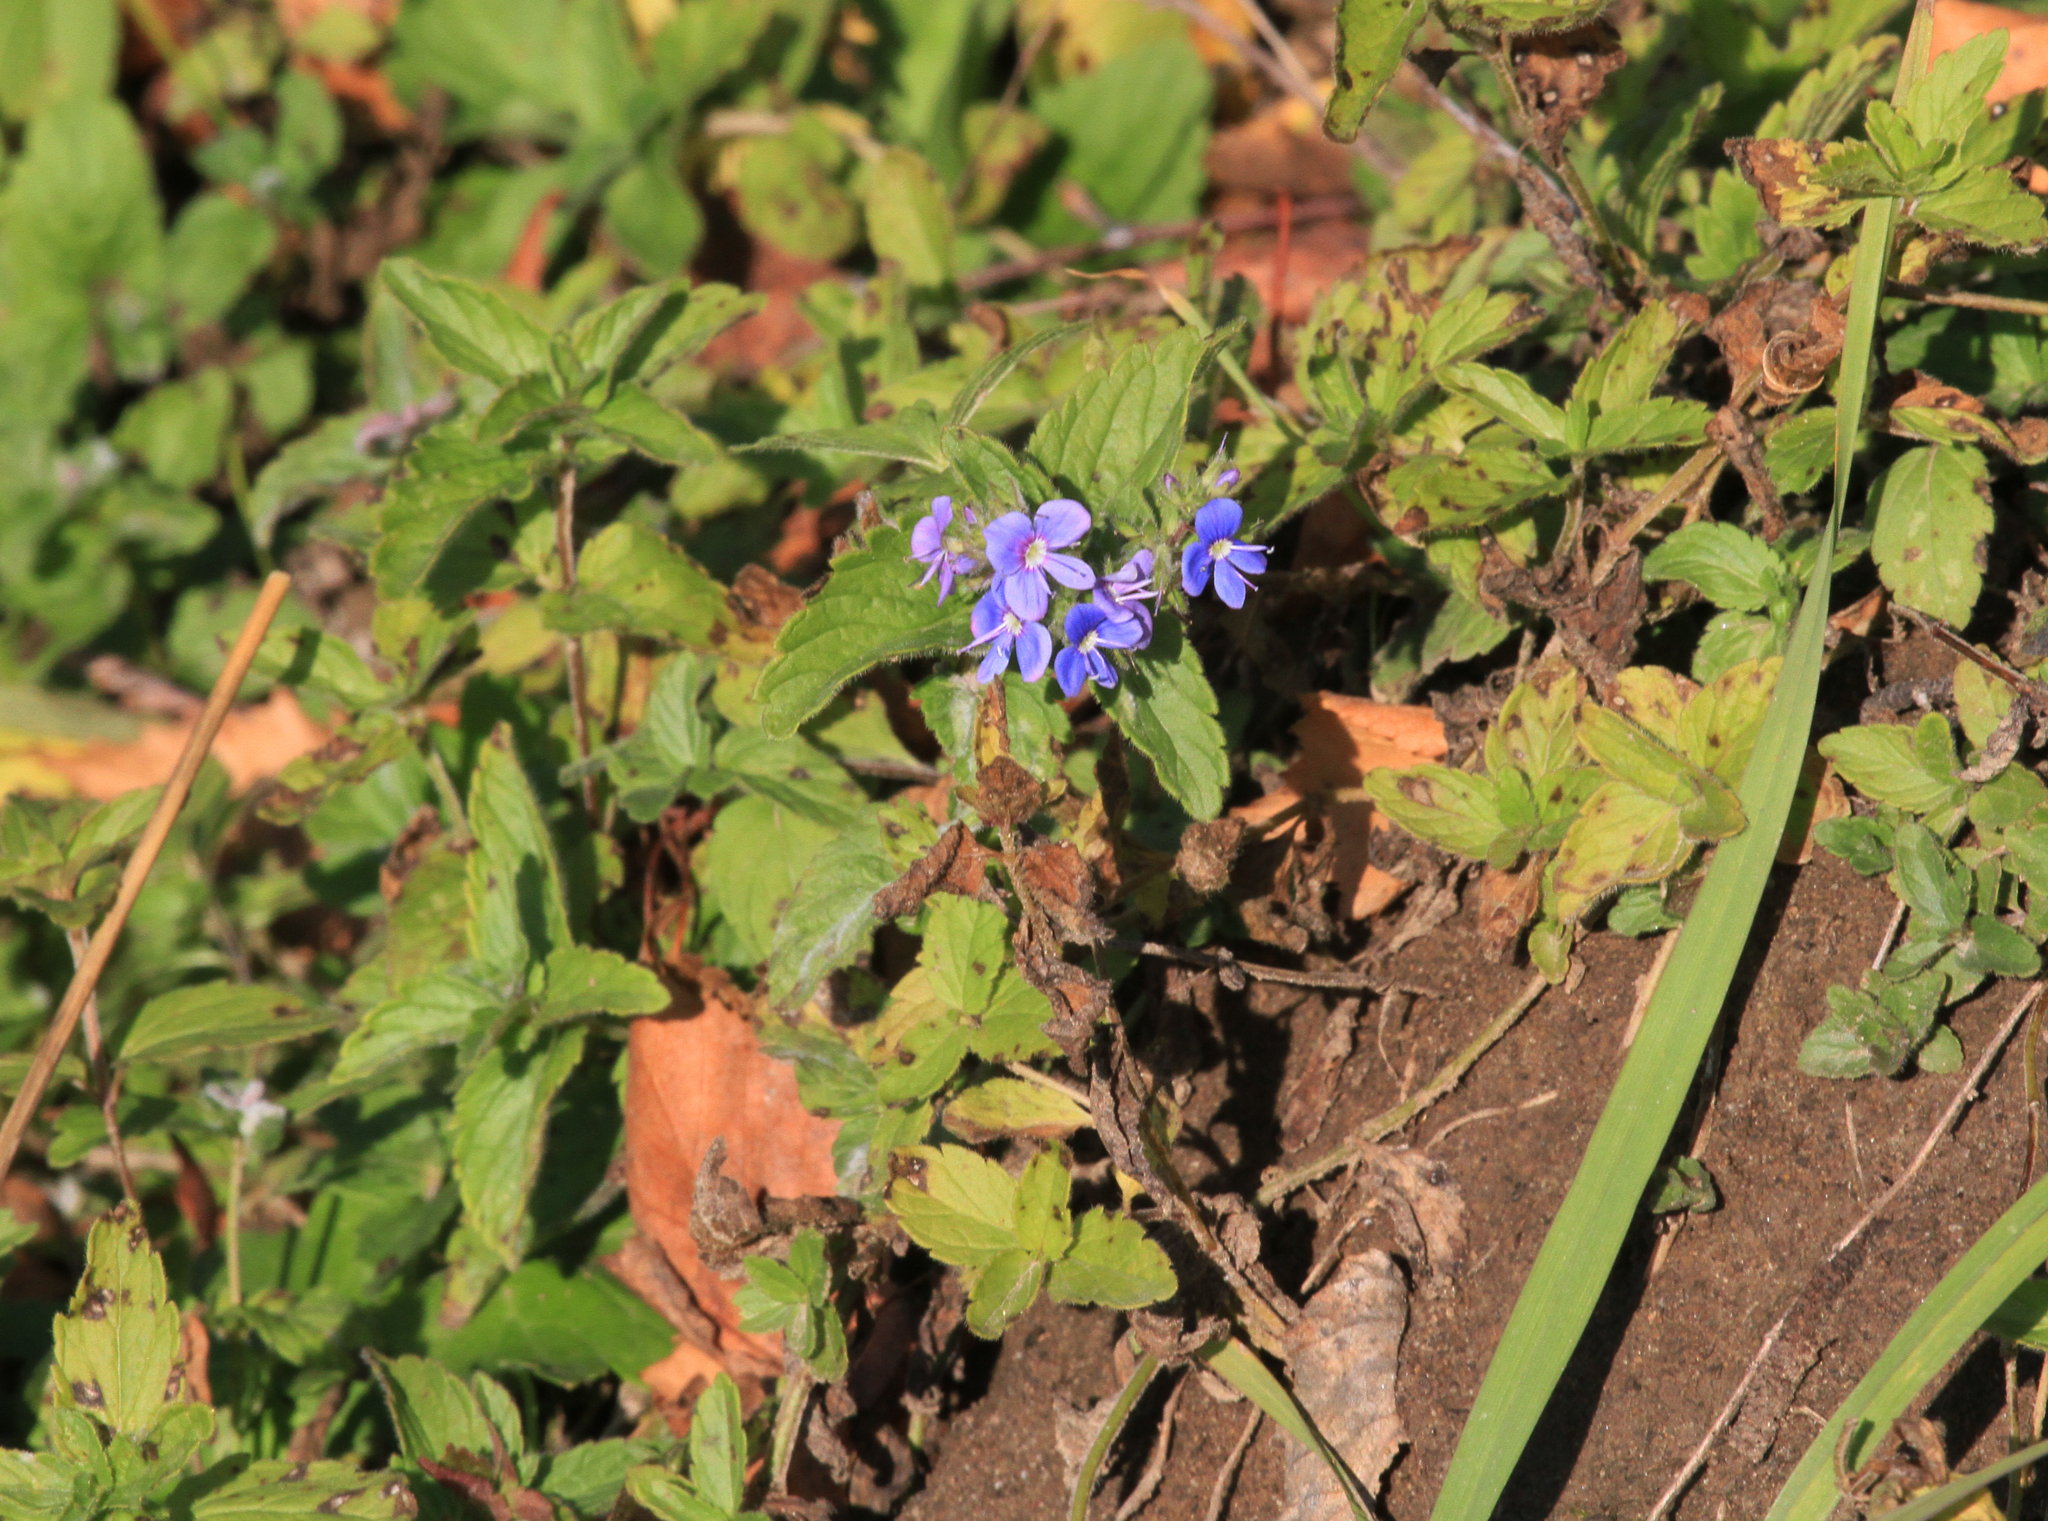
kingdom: Plantae
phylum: Tracheophyta
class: Magnoliopsida
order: Lamiales
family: Plantaginaceae
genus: Veronica
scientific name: Veronica chamaedrys
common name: Germander speedwell
